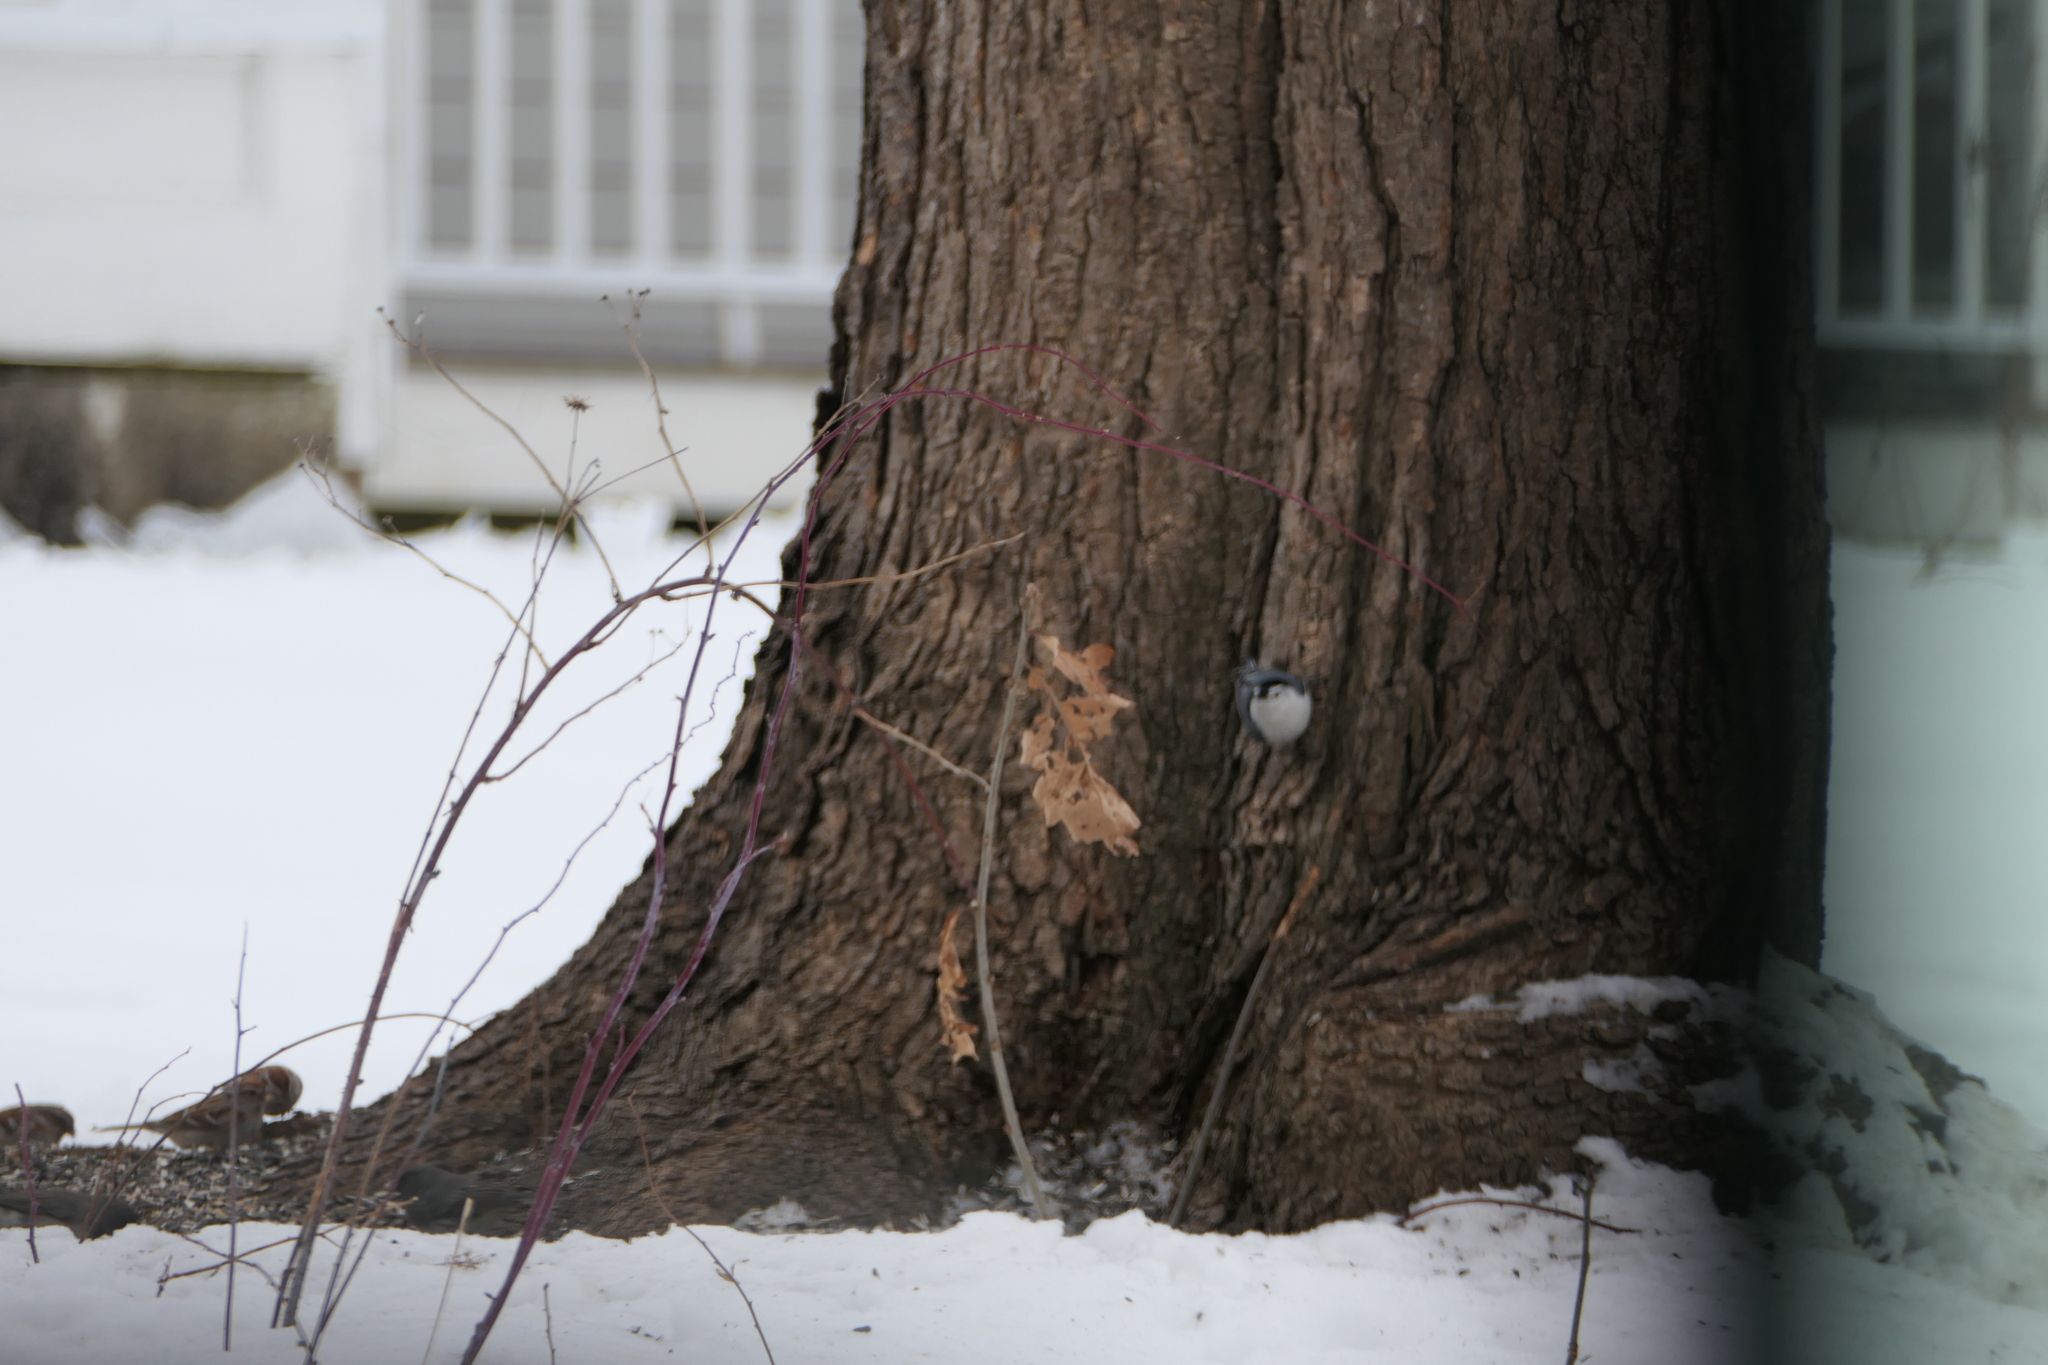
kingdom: Animalia
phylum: Chordata
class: Aves
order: Passeriformes
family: Sittidae
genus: Sitta
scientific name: Sitta carolinensis
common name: White-breasted nuthatch
